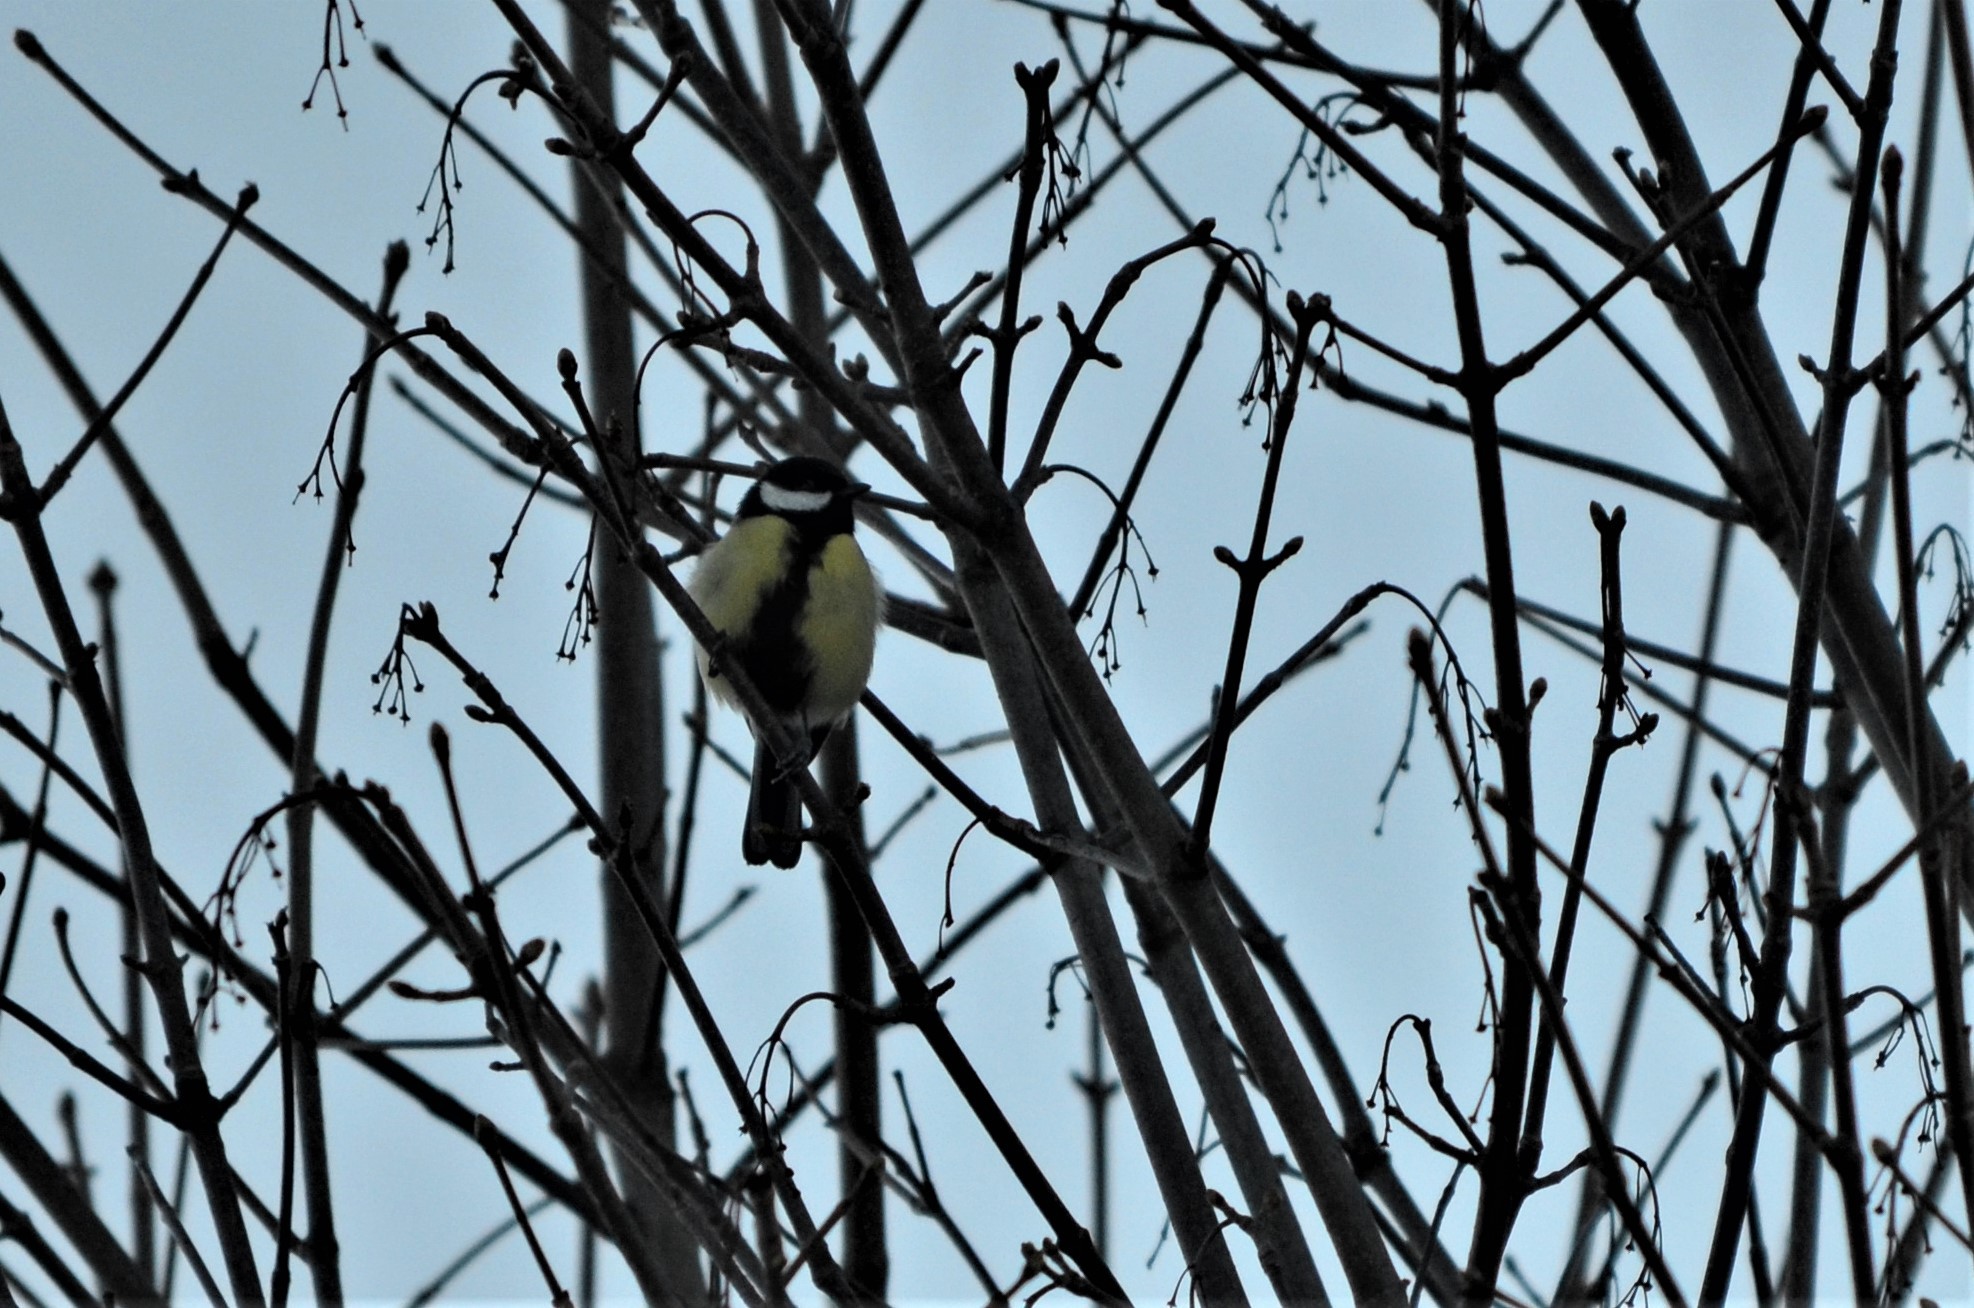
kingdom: Animalia
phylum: Chordata
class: Aves
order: Passeriformes
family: Paridae
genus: Parus
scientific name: Parus major
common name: Great tit
